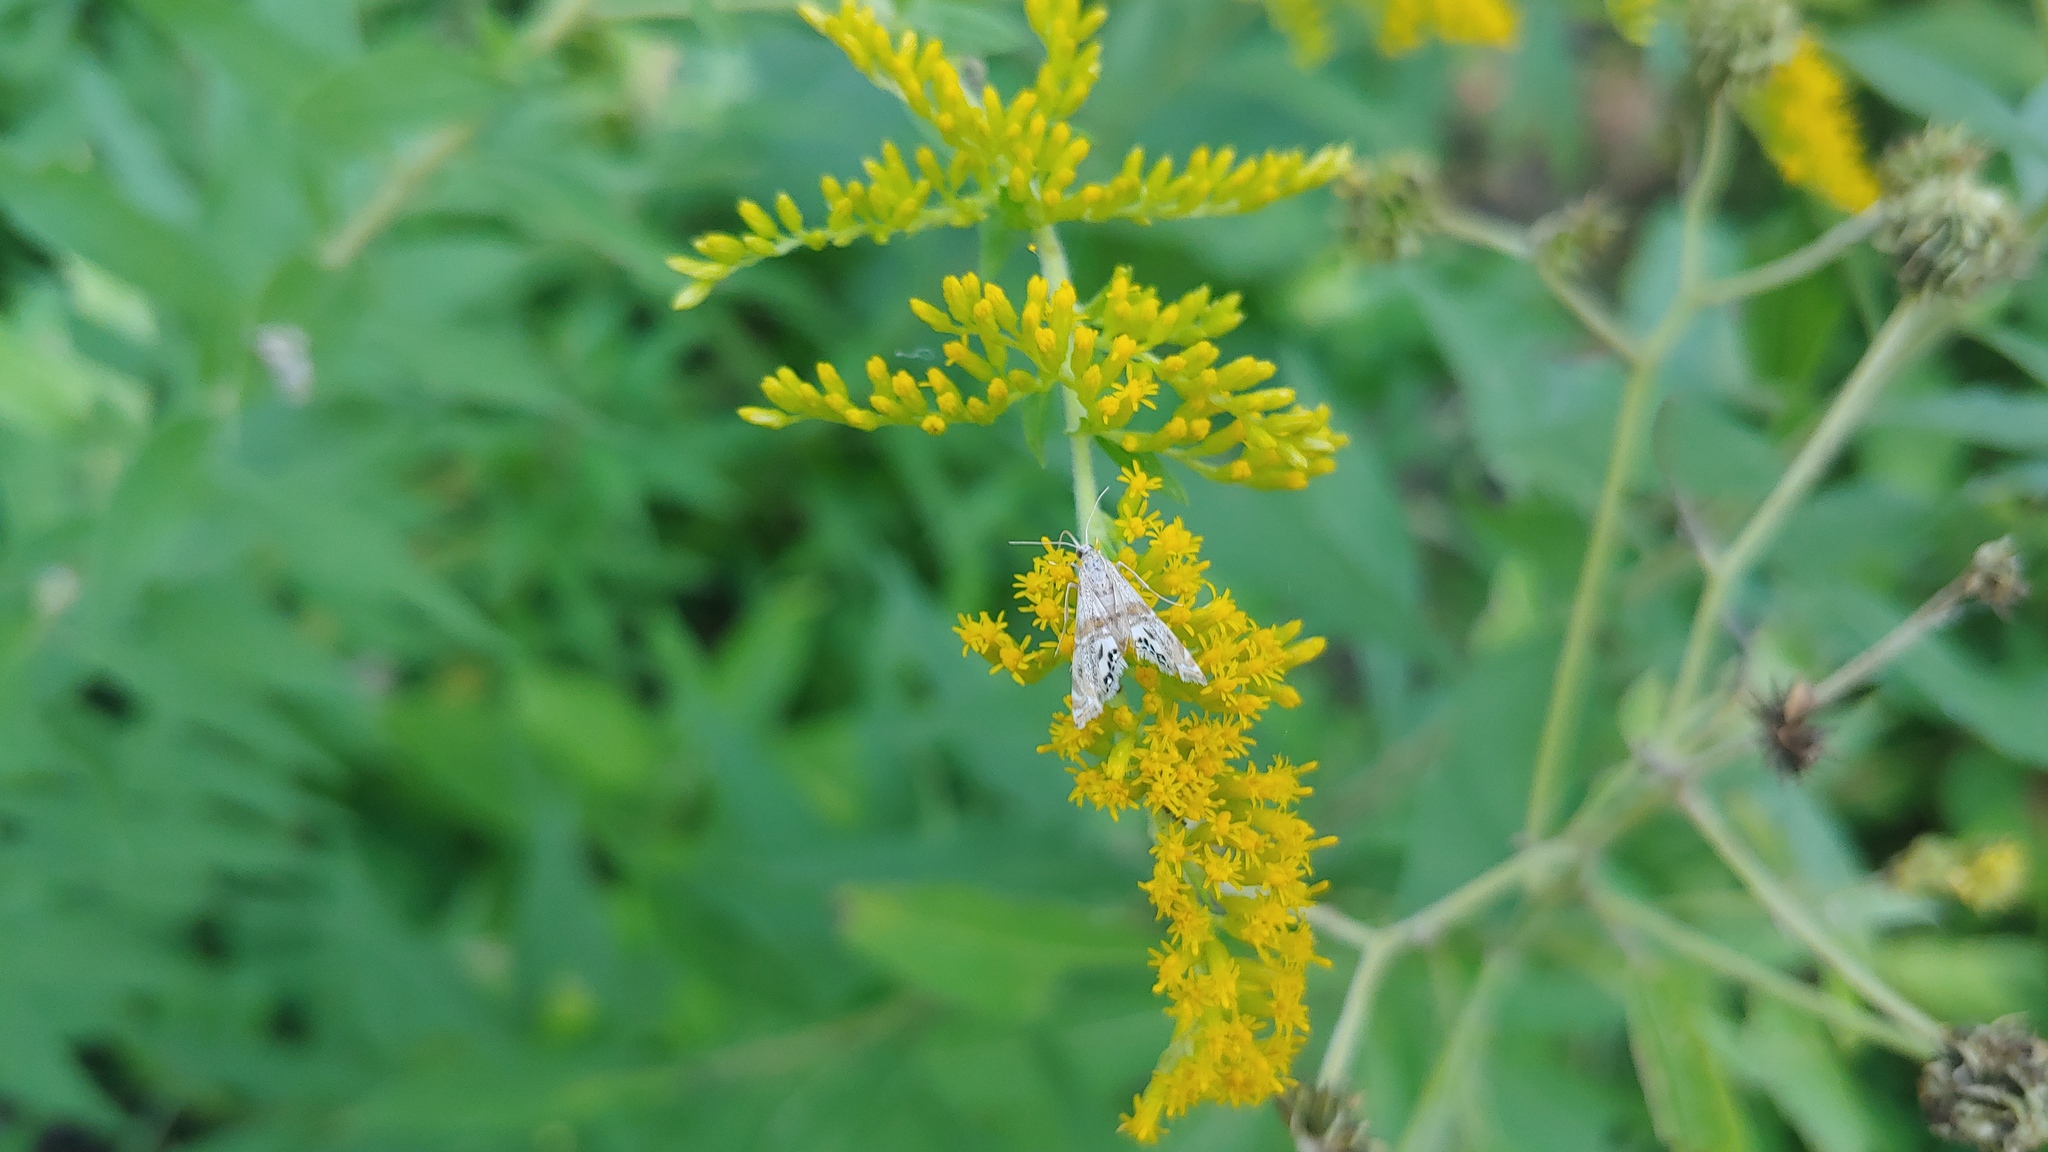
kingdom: Animalia
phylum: Arthropoda
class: Insecta
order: Lepidoptera
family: Crambidae
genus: Petrophila
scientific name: Petrophila bifascialis
